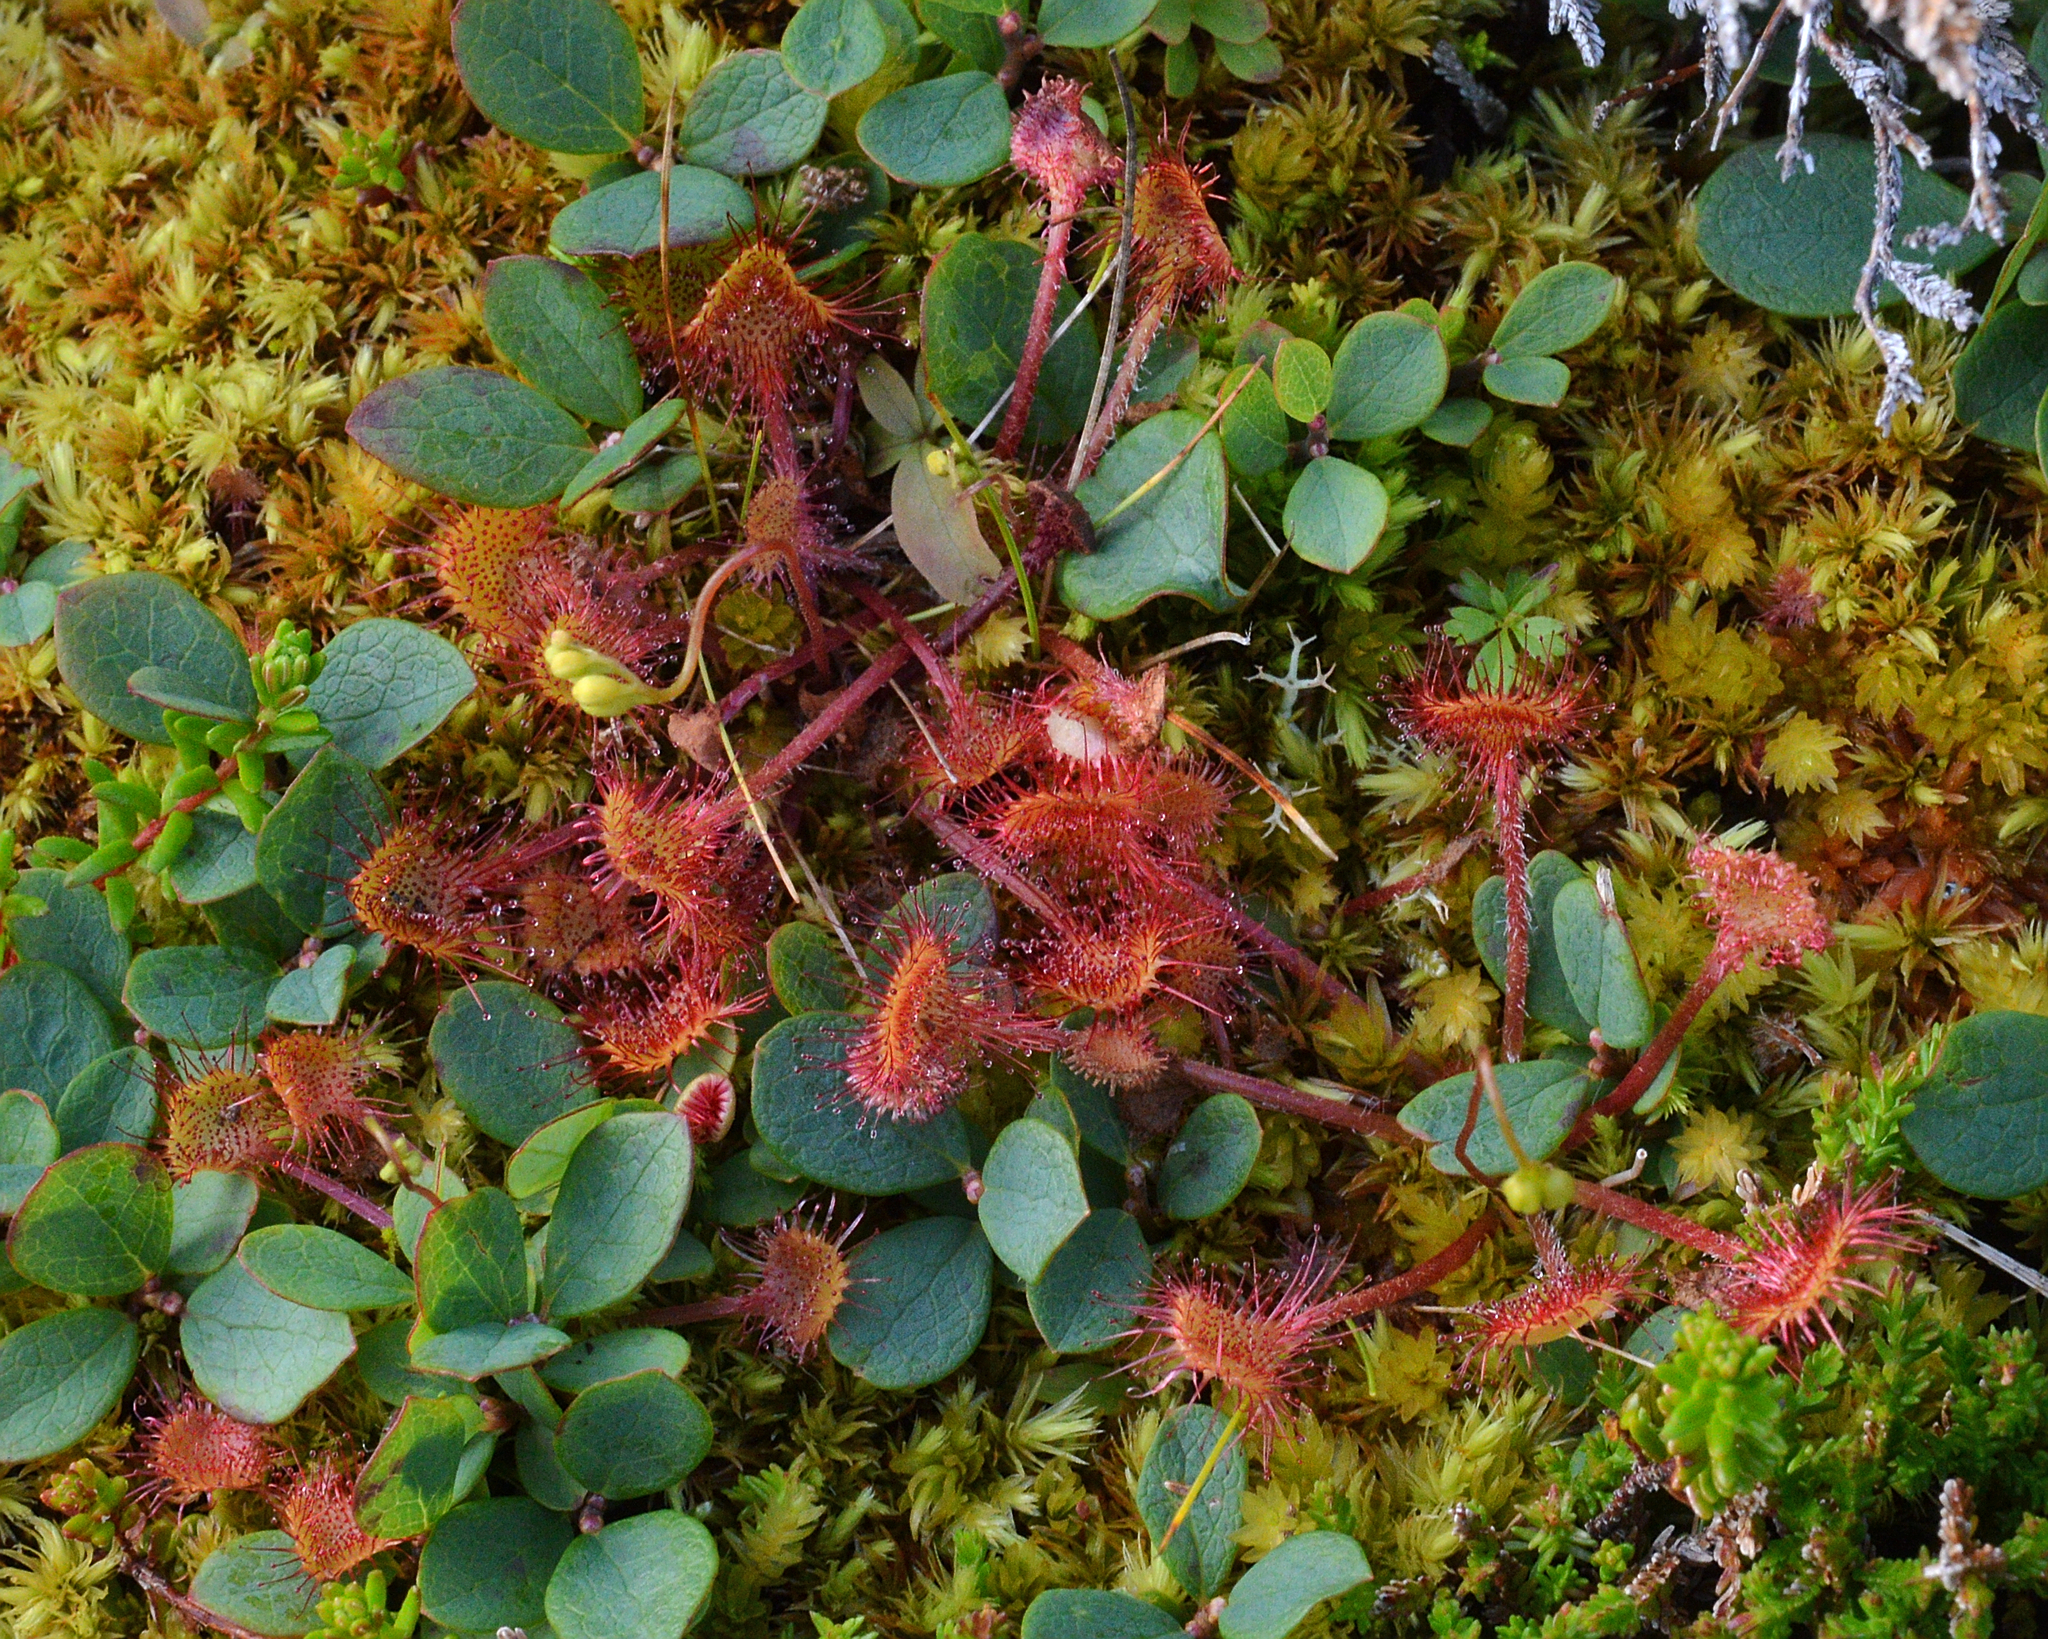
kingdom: Plantae
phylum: Tracheophyta
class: Magnoliopsida
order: Caryophyllales
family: Droseraceae
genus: Drosera
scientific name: Drosera rotundifolia
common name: Round-leaved sundew
